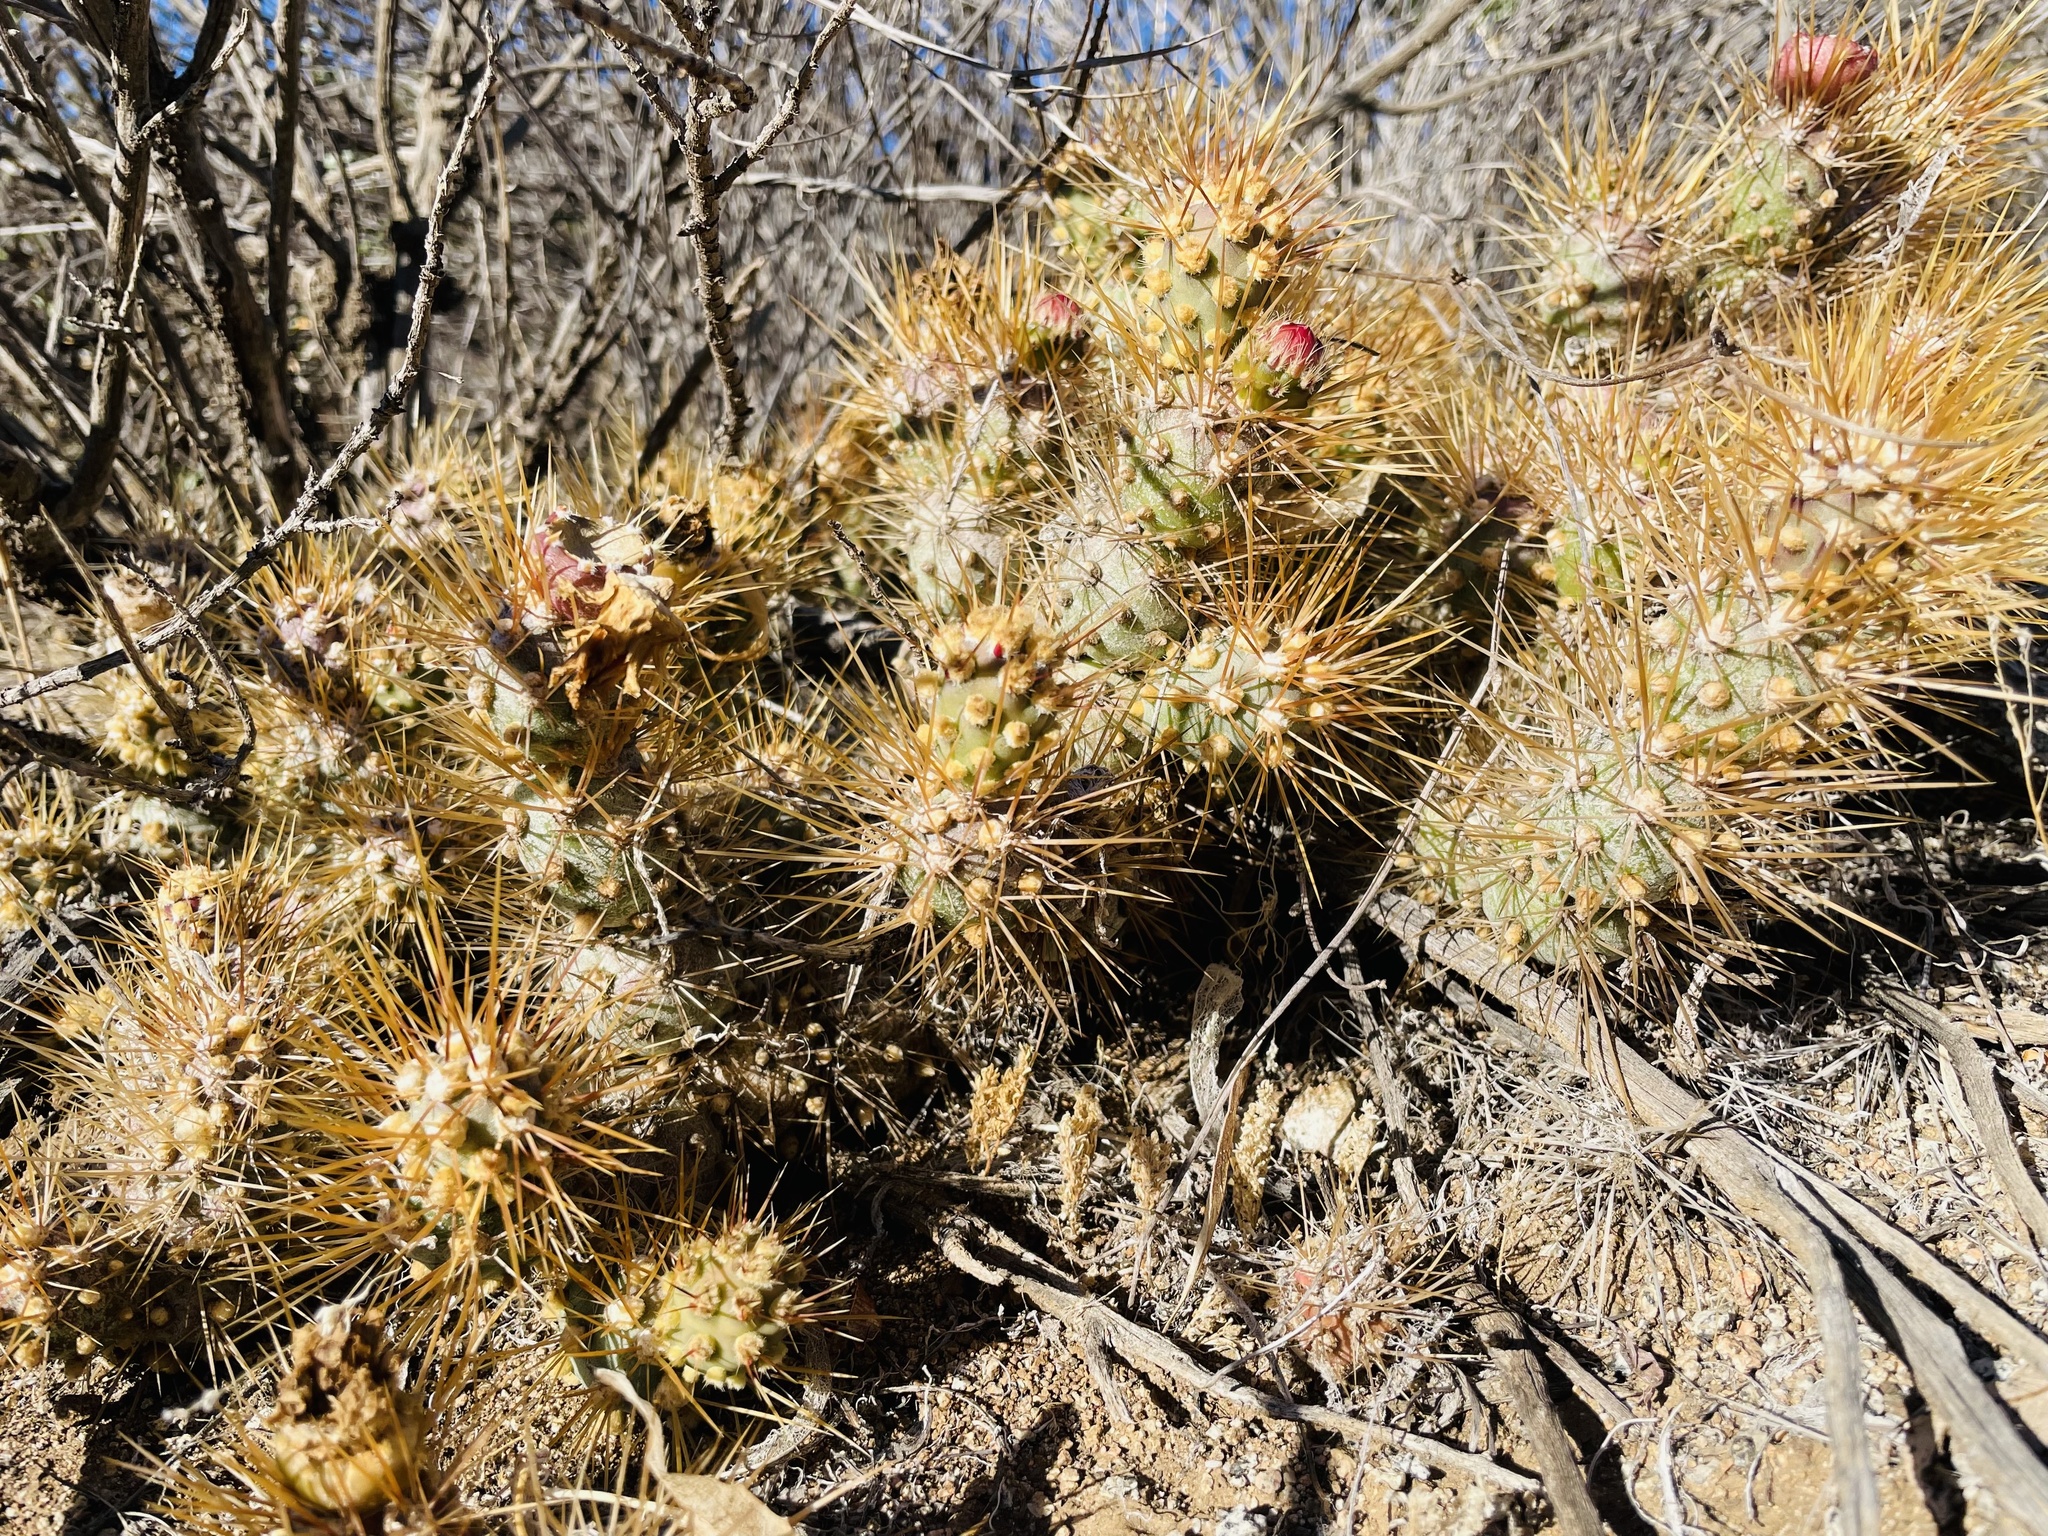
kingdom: Plantae
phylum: Tracheophyta
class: Magnoliopsida
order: Caryophyllales
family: Cactaceae
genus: Cumulopuntia
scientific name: Cumulopuntia leucophaea
